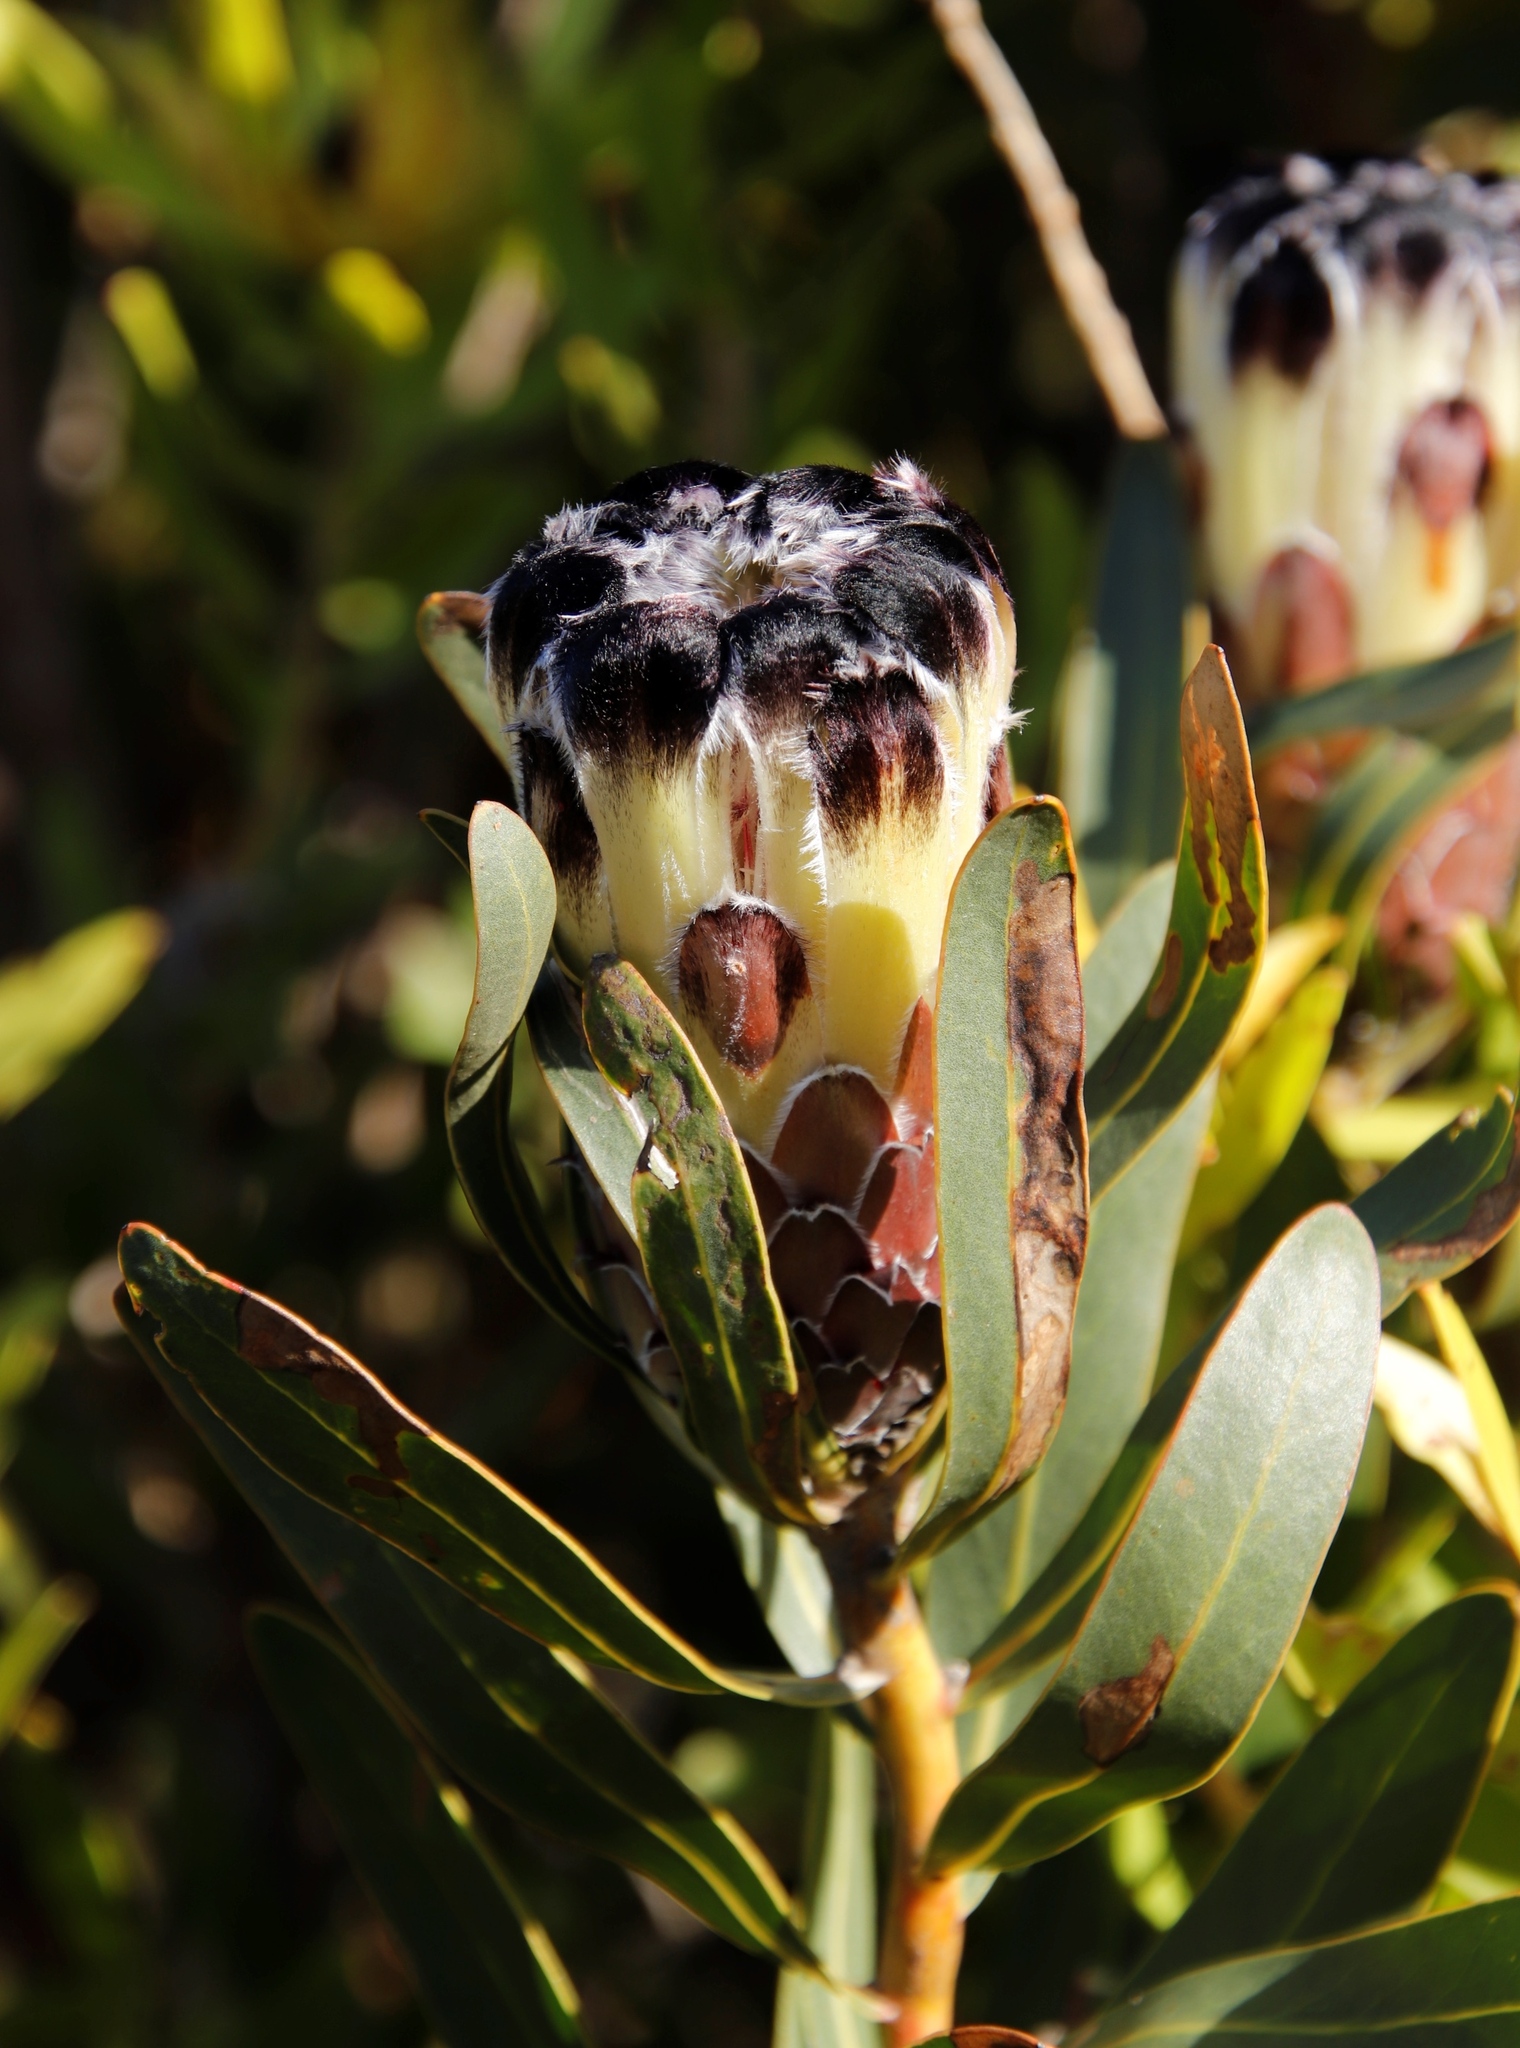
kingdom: Plantae
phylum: Tracheophyta
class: Magnoliopsida
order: Proteales
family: Proteaceae
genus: Protea
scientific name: Protea lepidocarpodendron
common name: Black-bearded protea
